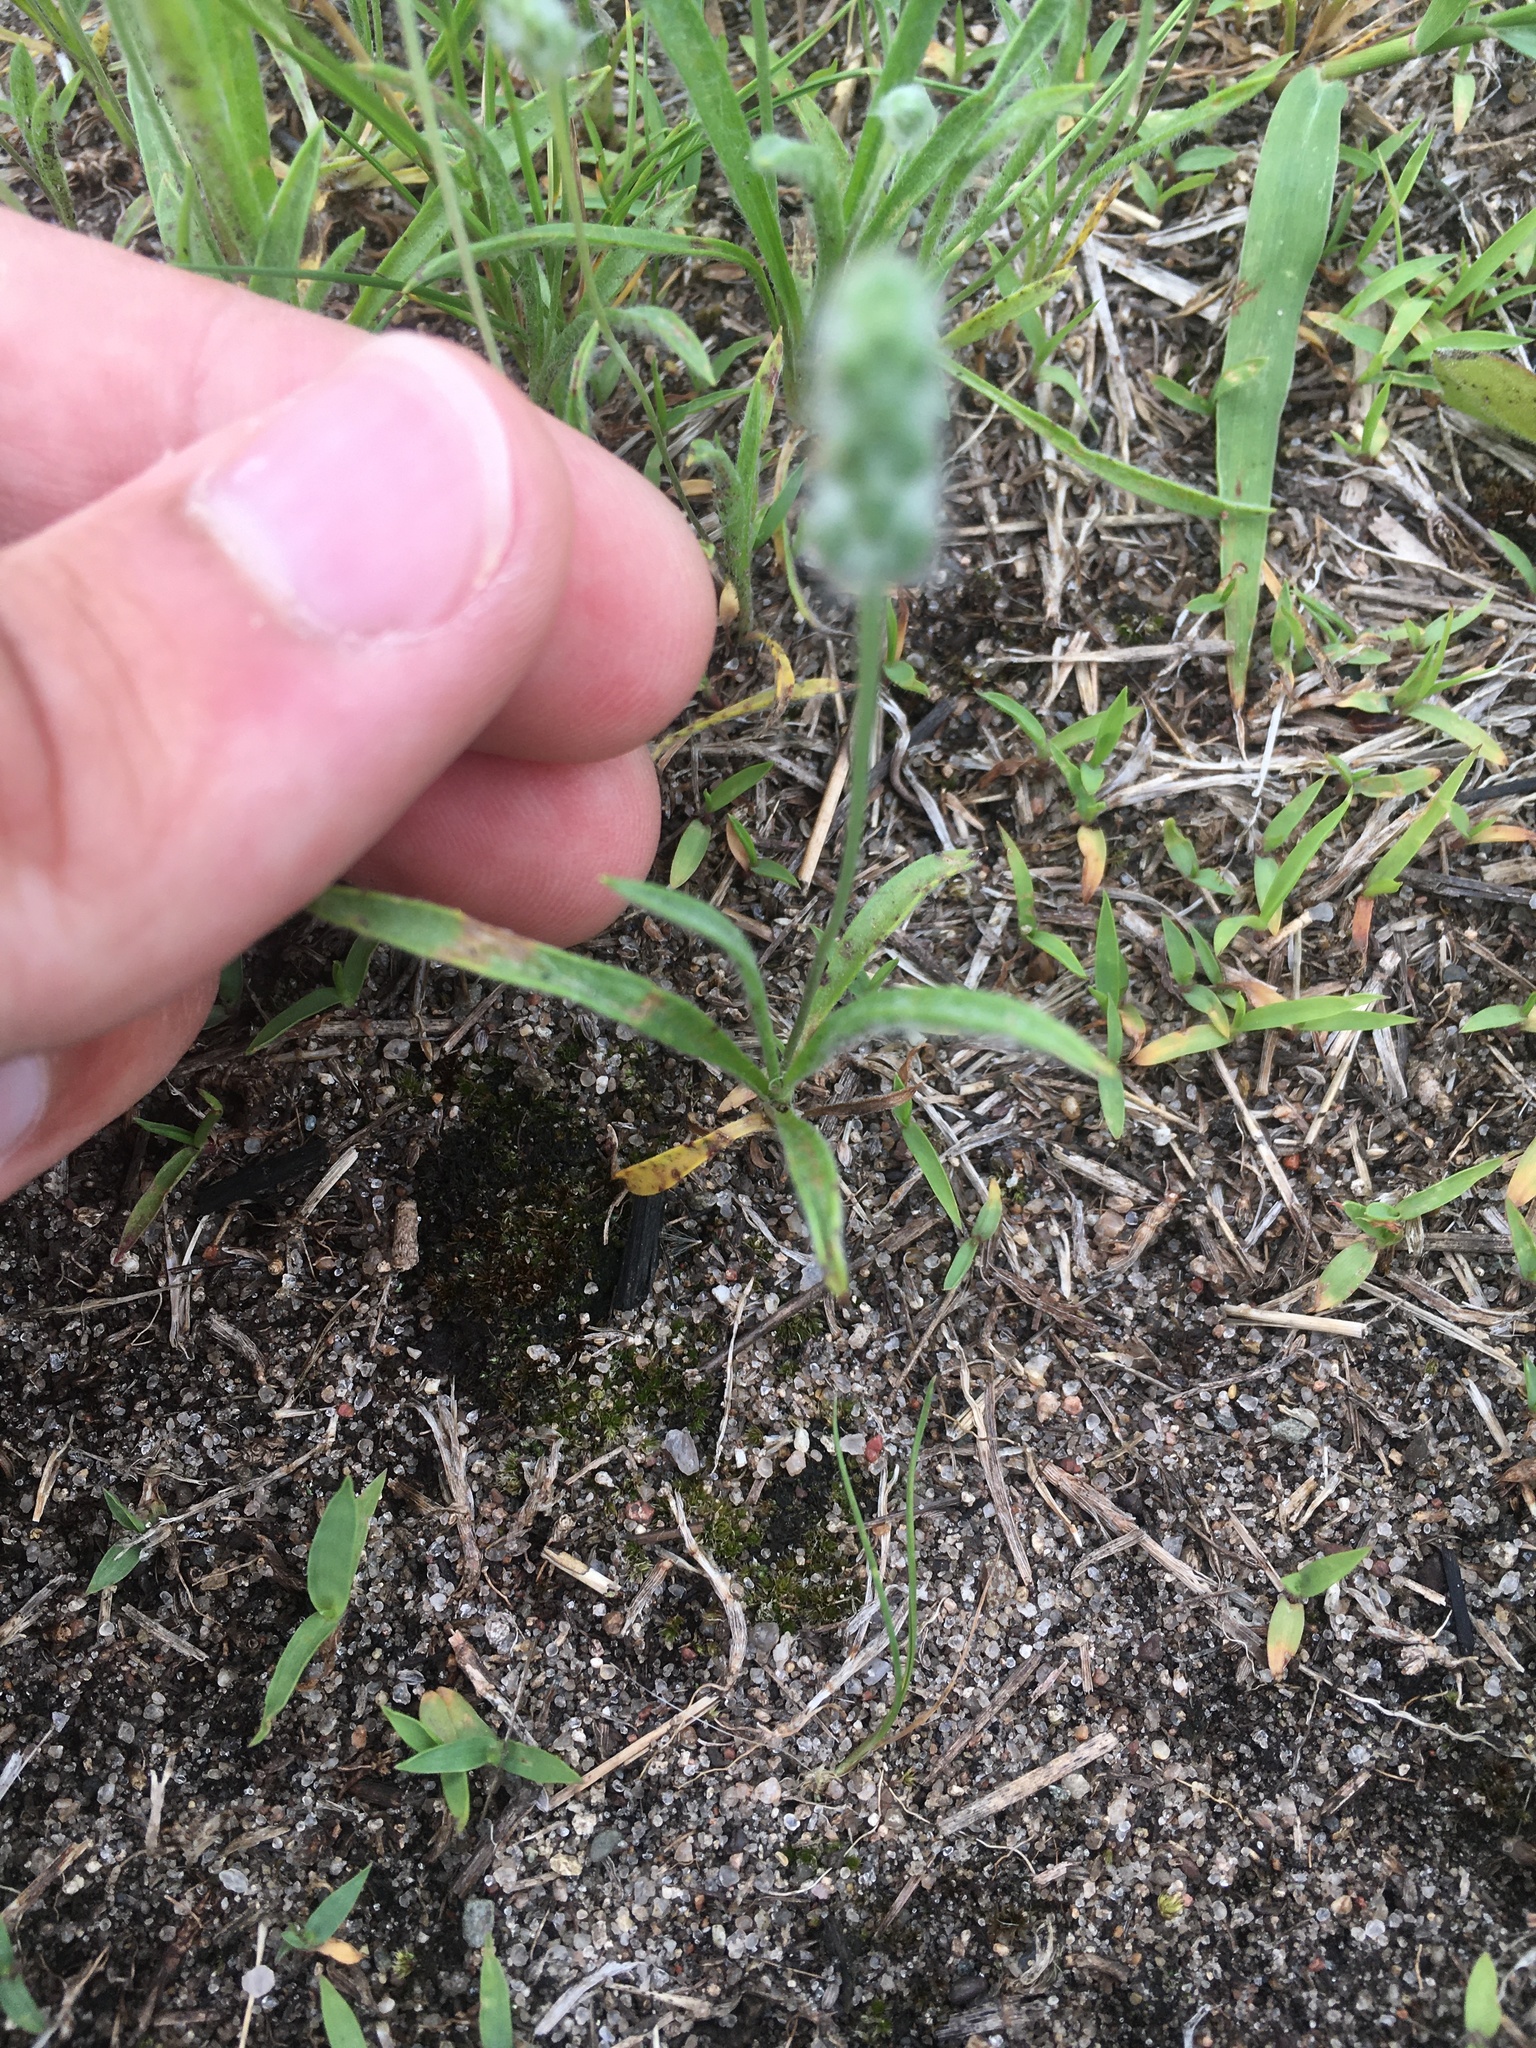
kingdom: Plantae
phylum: Tracheophyta
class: Magnoliopsida
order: Lamiales
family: Plantaginaceae
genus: Plantago
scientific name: Plantago patagonica
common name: Patagonia indian-wheat
